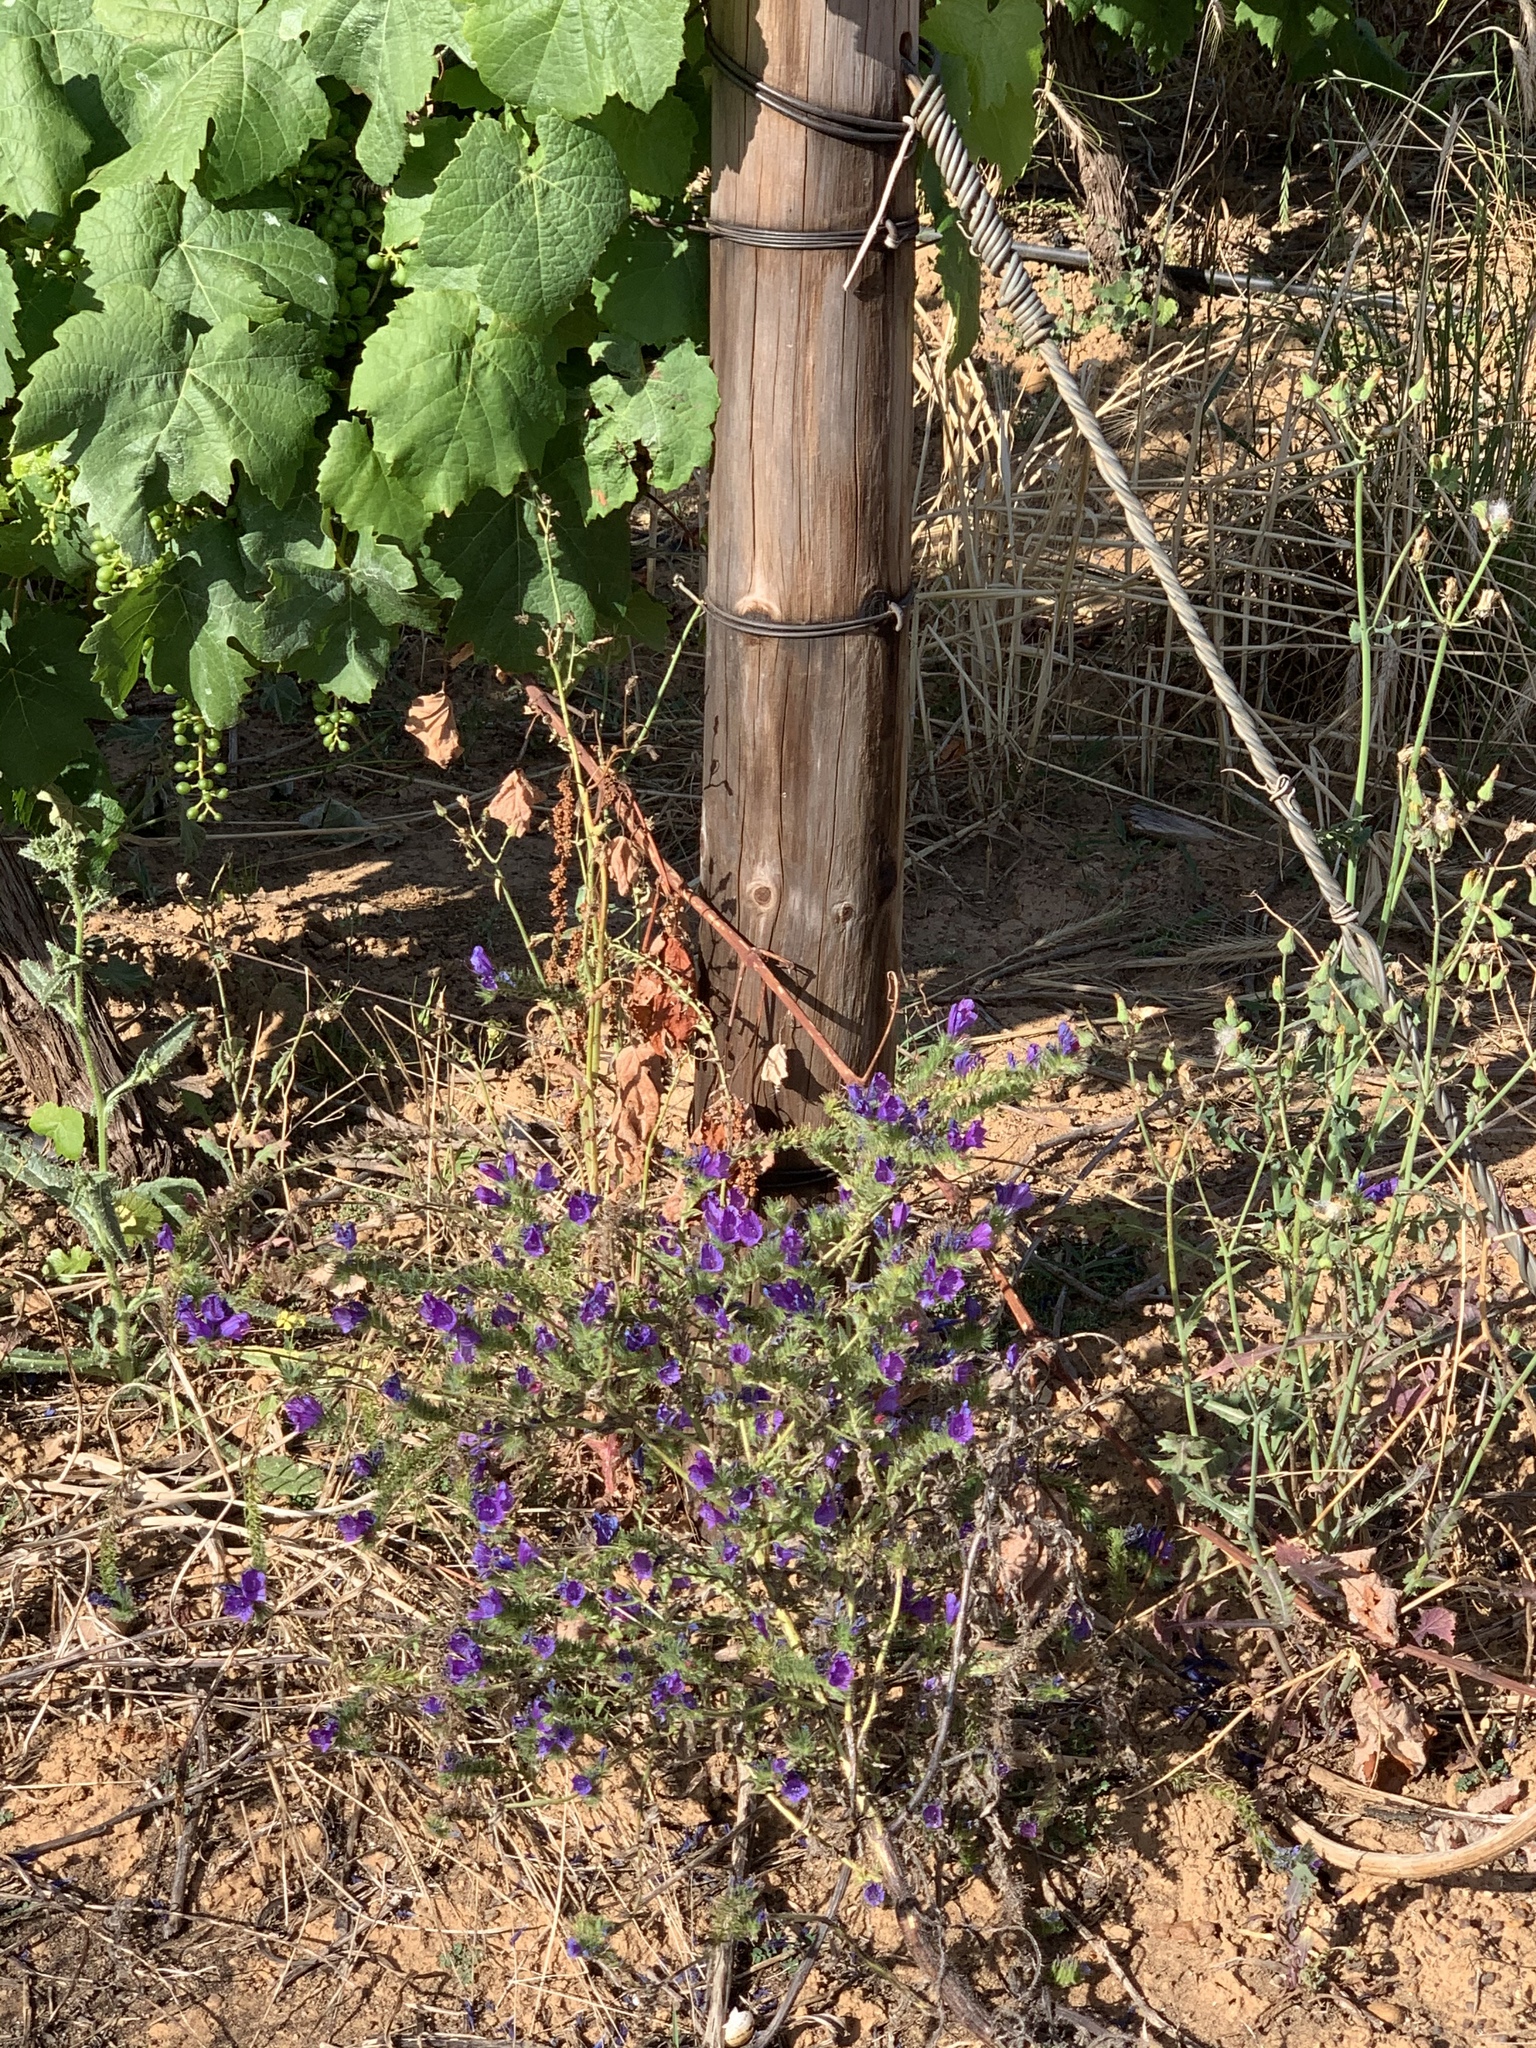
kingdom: Plantae
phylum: Tracheophyta
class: Magnoliopsida
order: Boraginales
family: Boraginaceae
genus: Echium
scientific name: Echium plantagineum
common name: Purple viper's-bugloss
